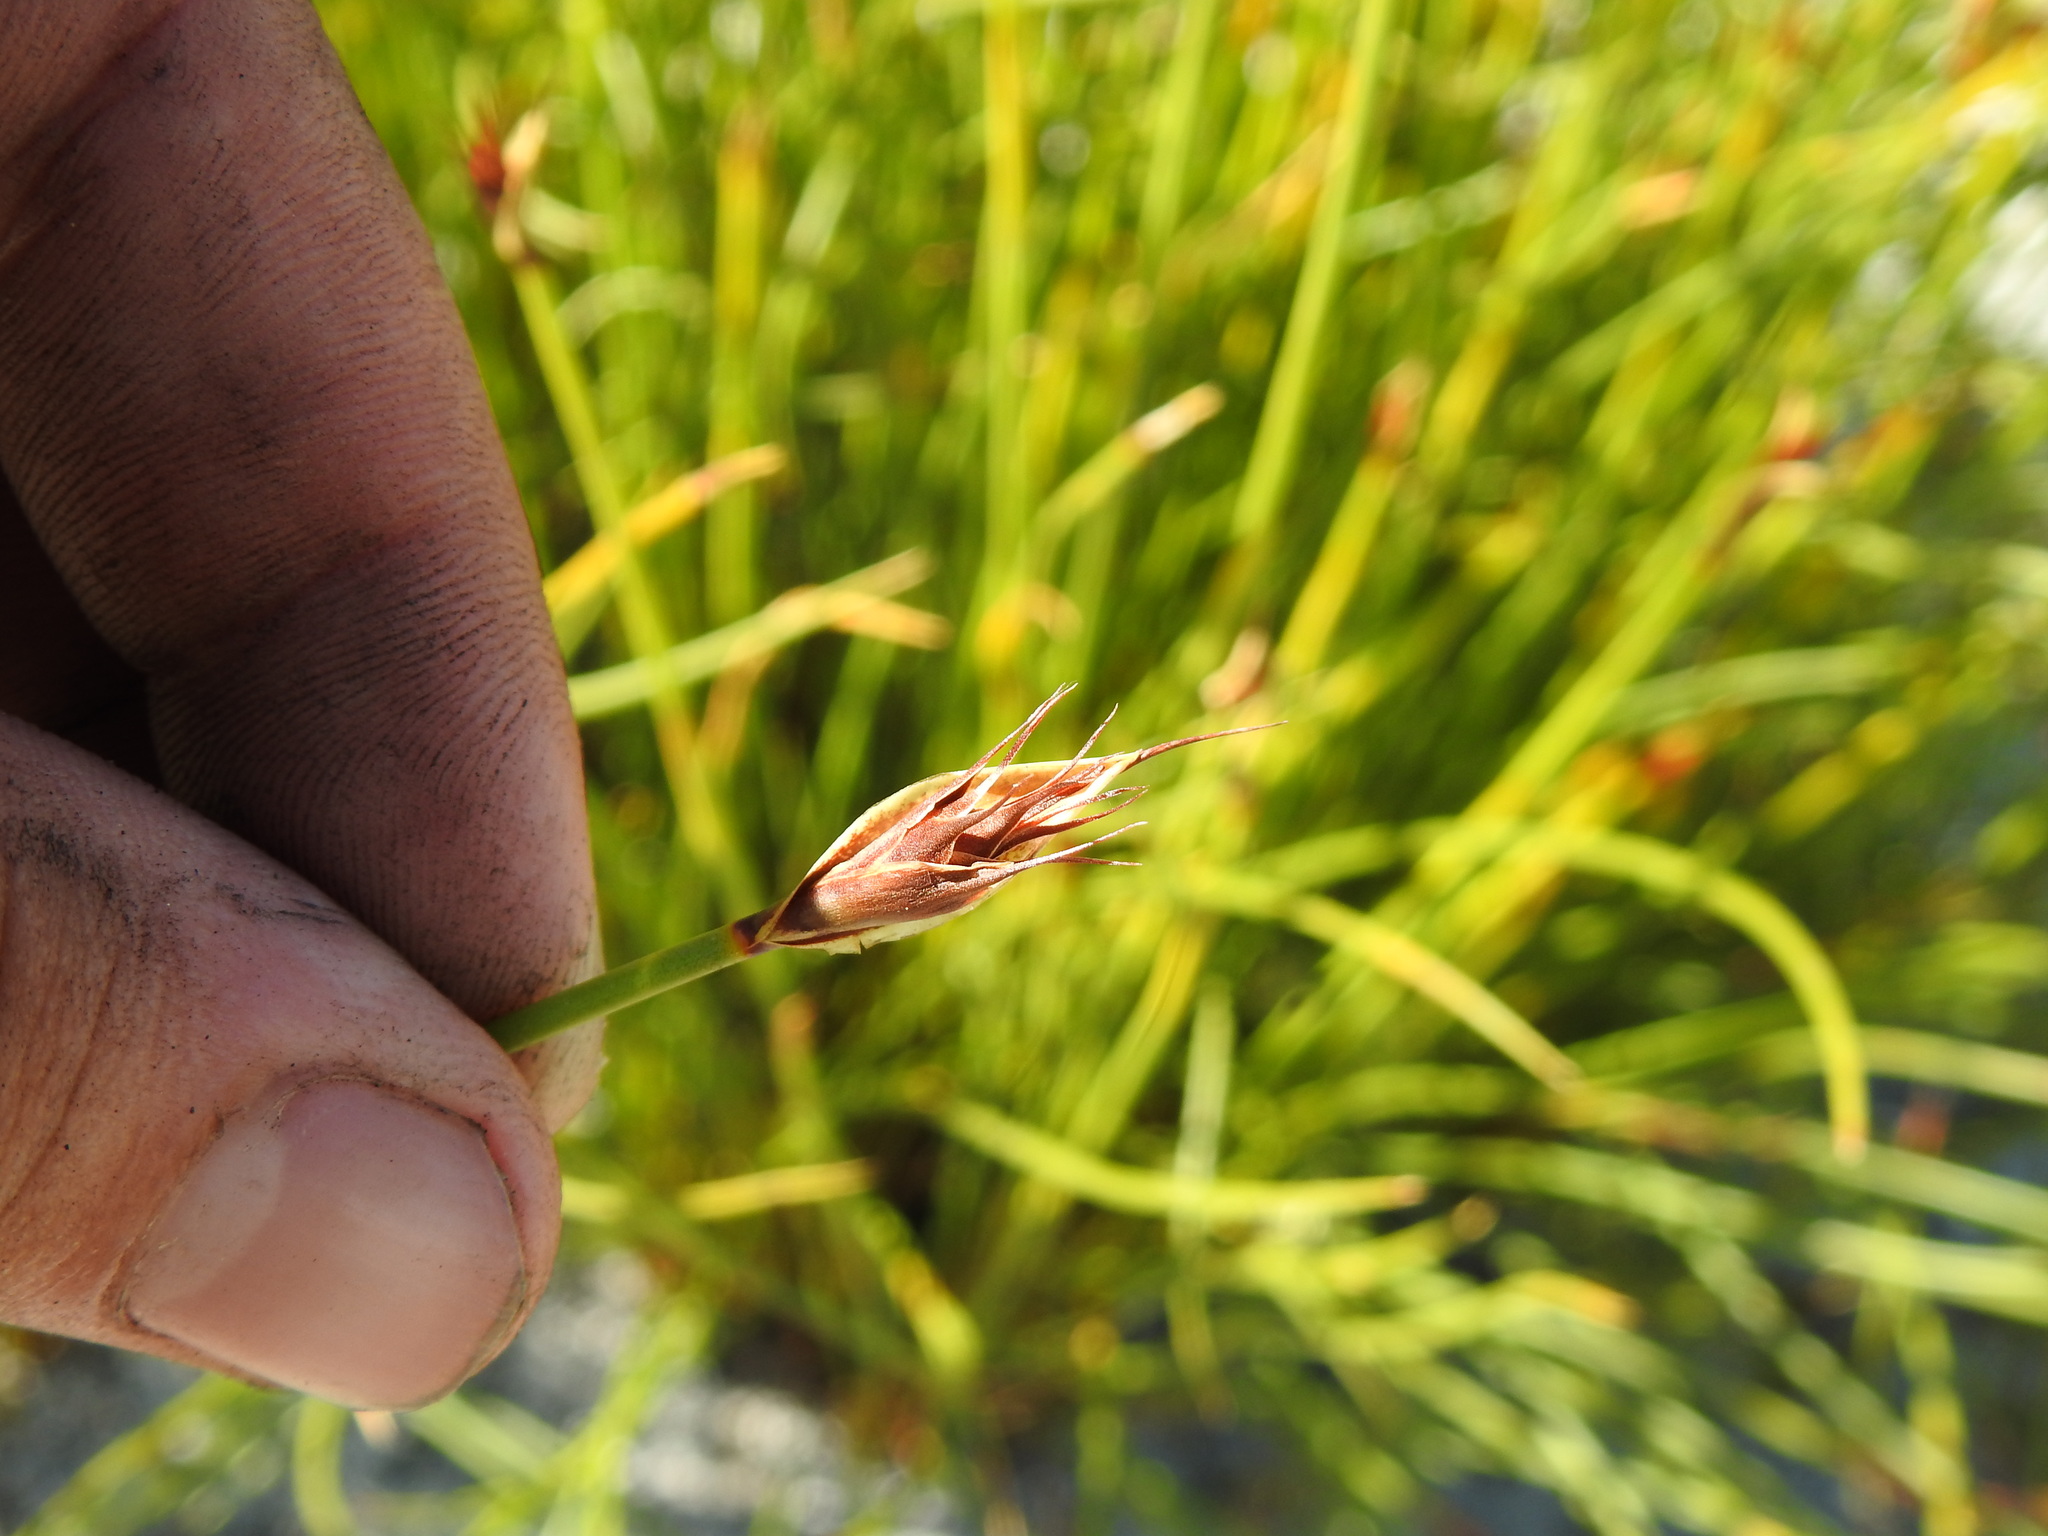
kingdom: Plantae
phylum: Tracheophyta
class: Liliopsida
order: Poales
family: Restionaceae
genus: Hypodiscus
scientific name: Hypodiscus aristatus
